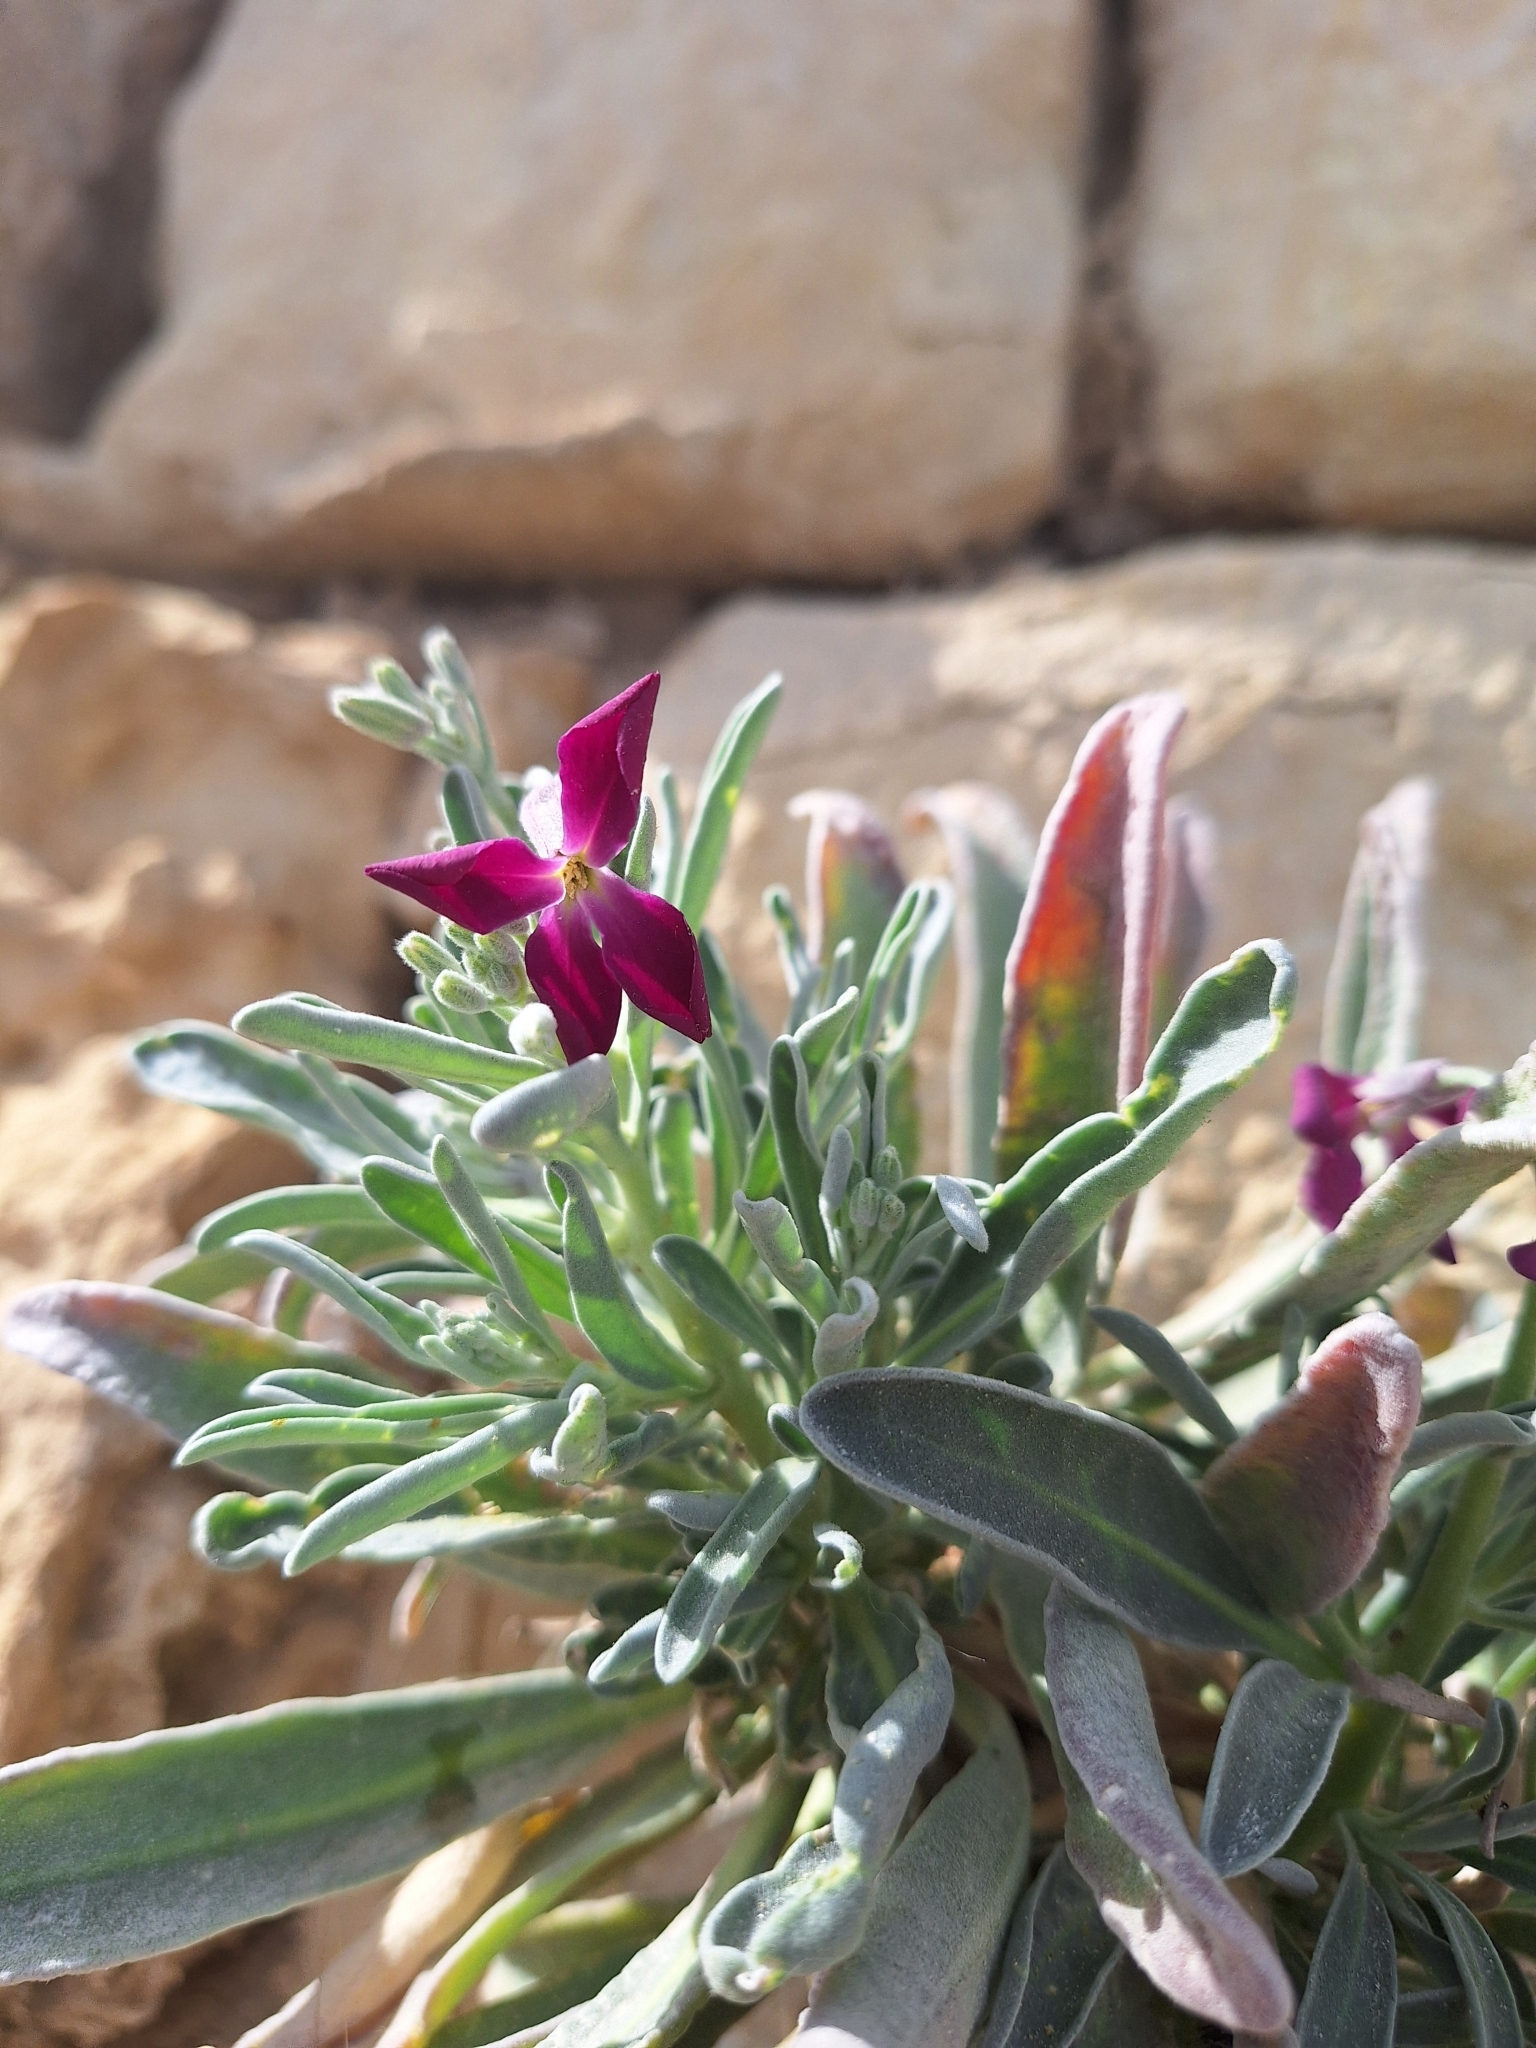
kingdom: Plantae
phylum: Tracheophyta
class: Magnoliopsida
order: Brassicales
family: Brassicaceae
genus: Matthiola
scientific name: Matthiola incana
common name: Hoary stock
